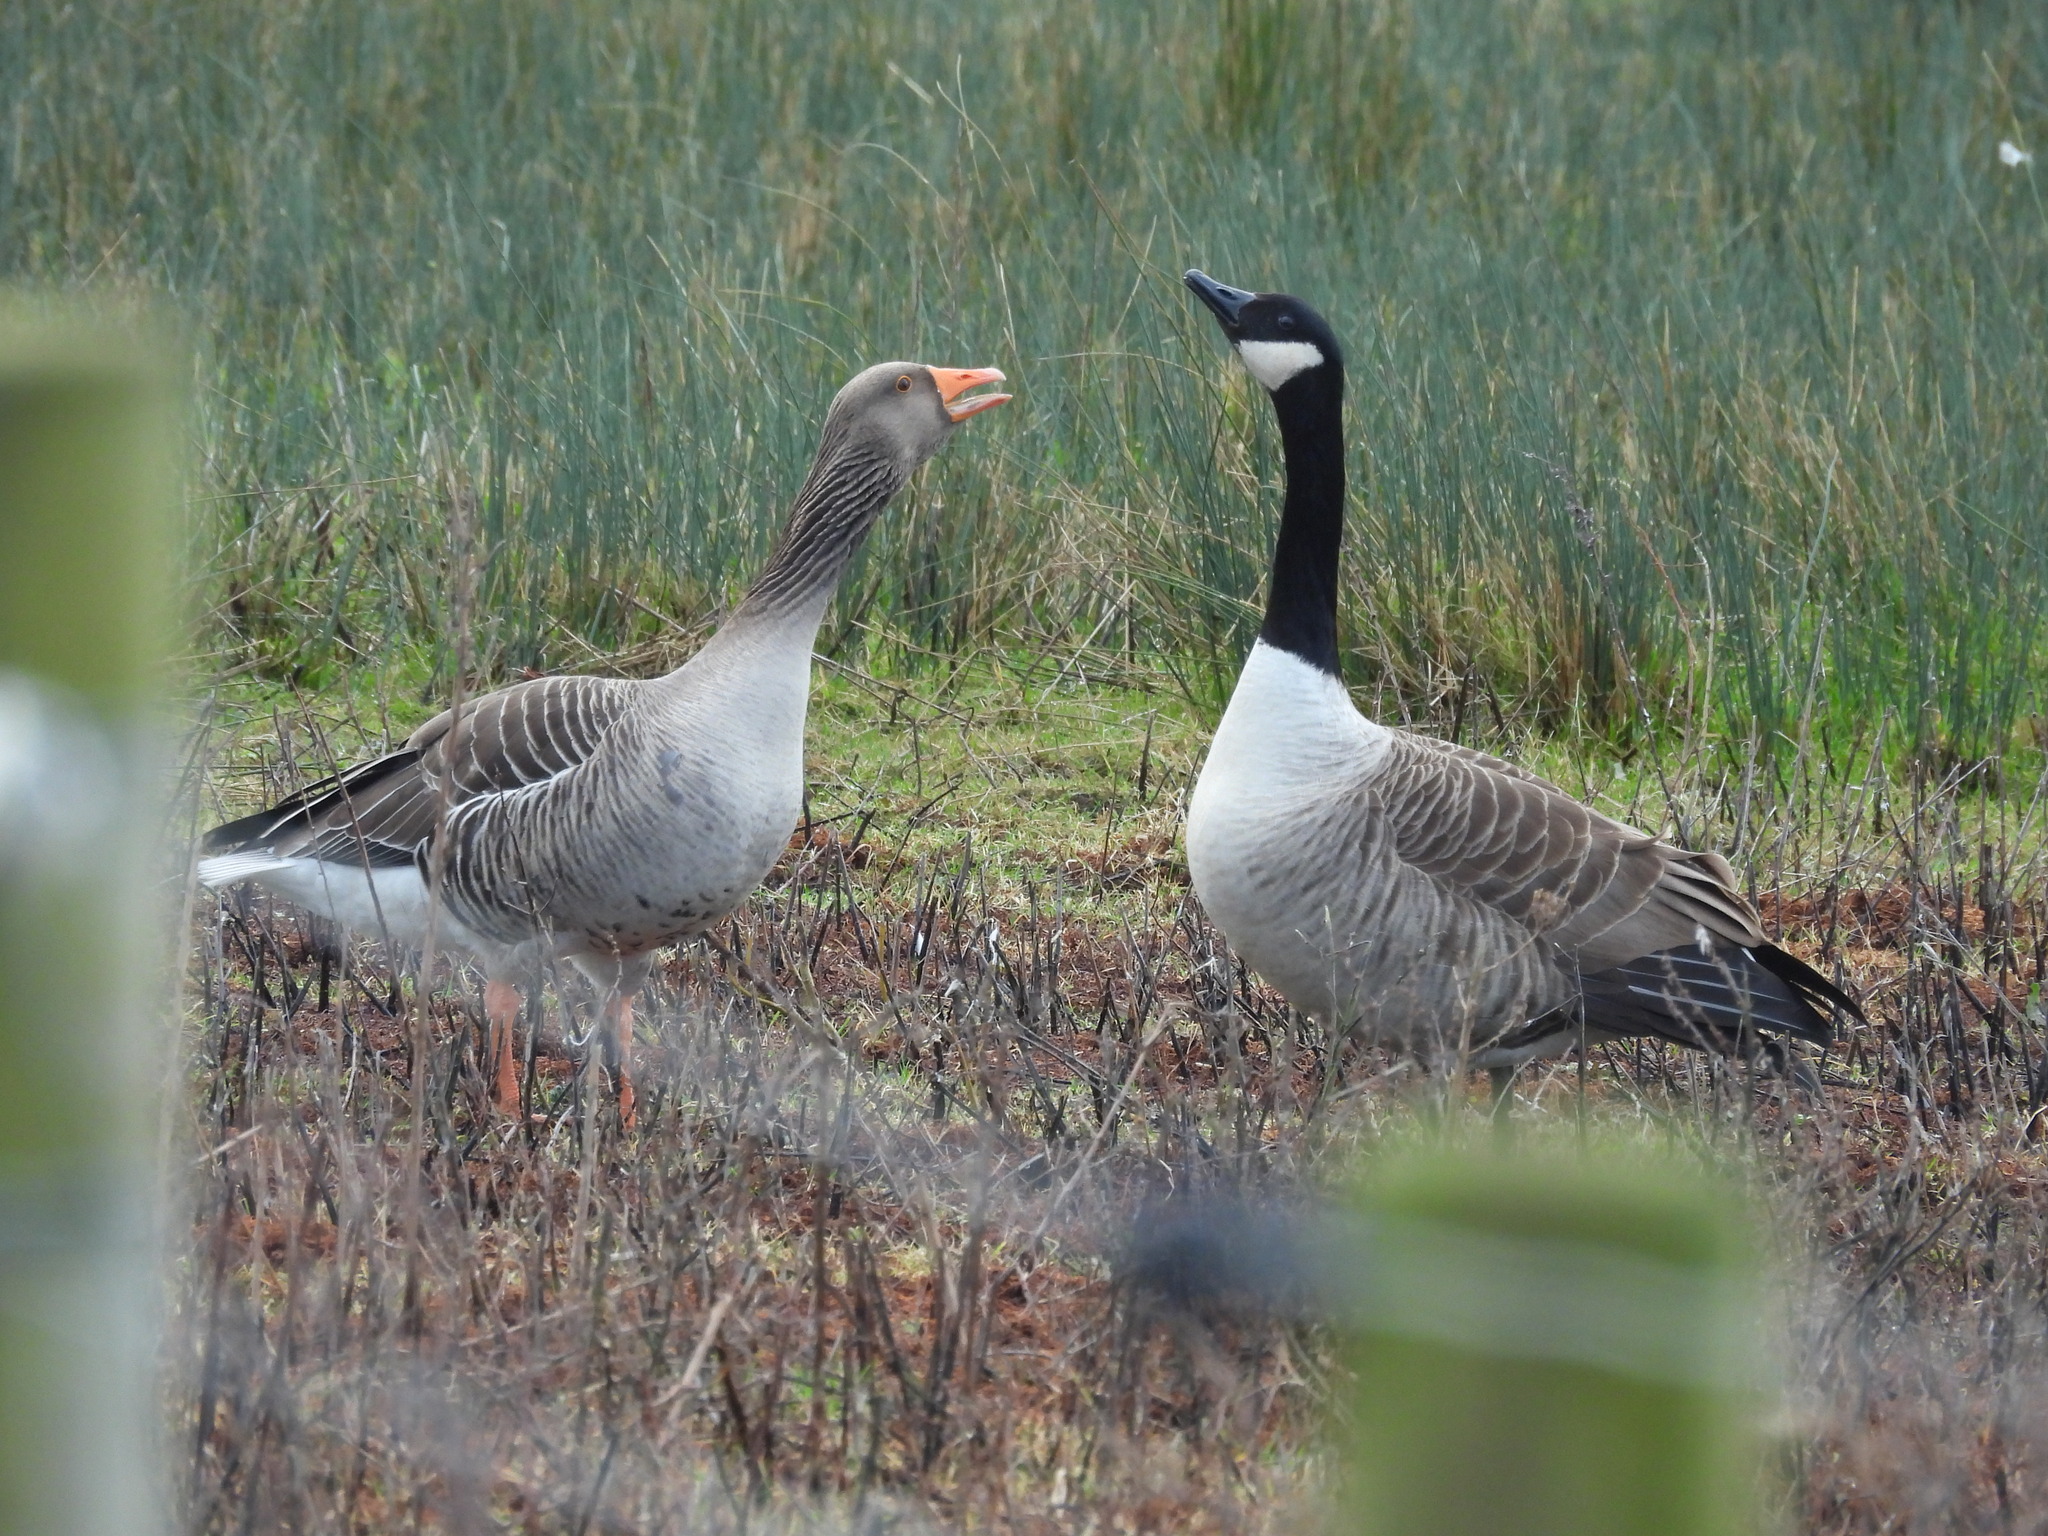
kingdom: Animalia
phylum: Chordata
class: Aves
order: Anseriformes
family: Anatidae
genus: Branta
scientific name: Branta canadensis
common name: Canada goose
